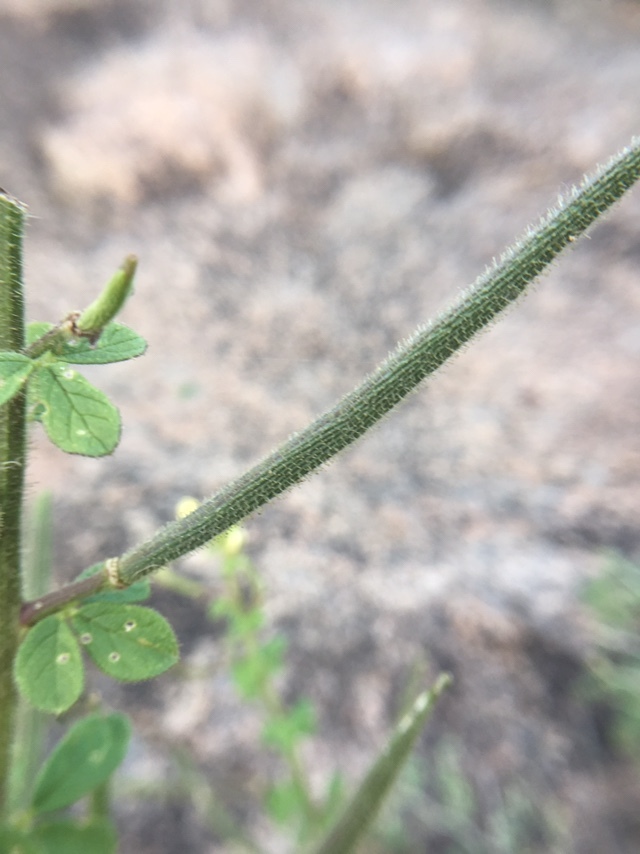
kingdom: Plantae
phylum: Tracheophyta
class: Magnoliopsida
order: Brassicales
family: Cleomaceae
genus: Arivela
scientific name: Arivela viscosa
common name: Asian spiderflower
